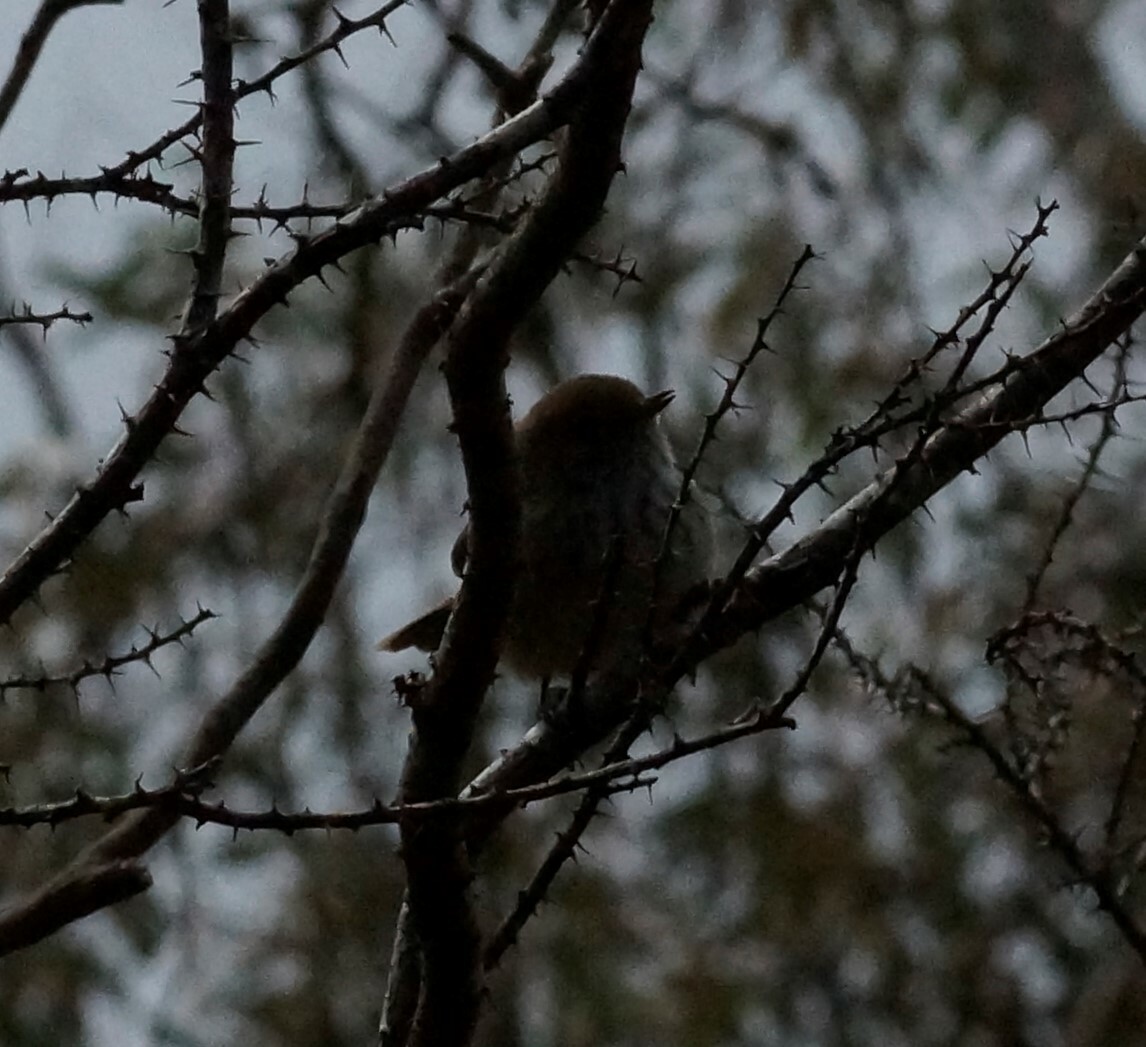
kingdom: Animalia
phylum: Chordata
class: Aves
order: Passeriformes
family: Acanthizidae
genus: Acanthiza
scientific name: Acanthiza pusilla
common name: Brown thornbill
